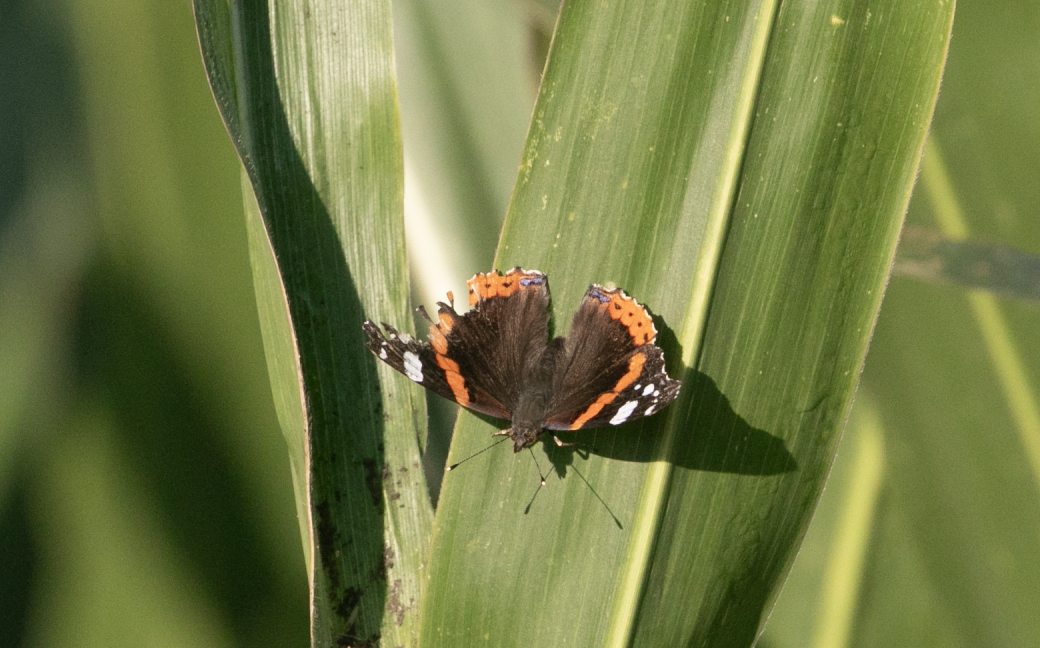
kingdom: Animalia
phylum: Arthropoda
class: Insecta
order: Lepidoptera
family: Nymphalidae
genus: Vanessa
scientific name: Vanessa atalanta
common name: Red admiral
